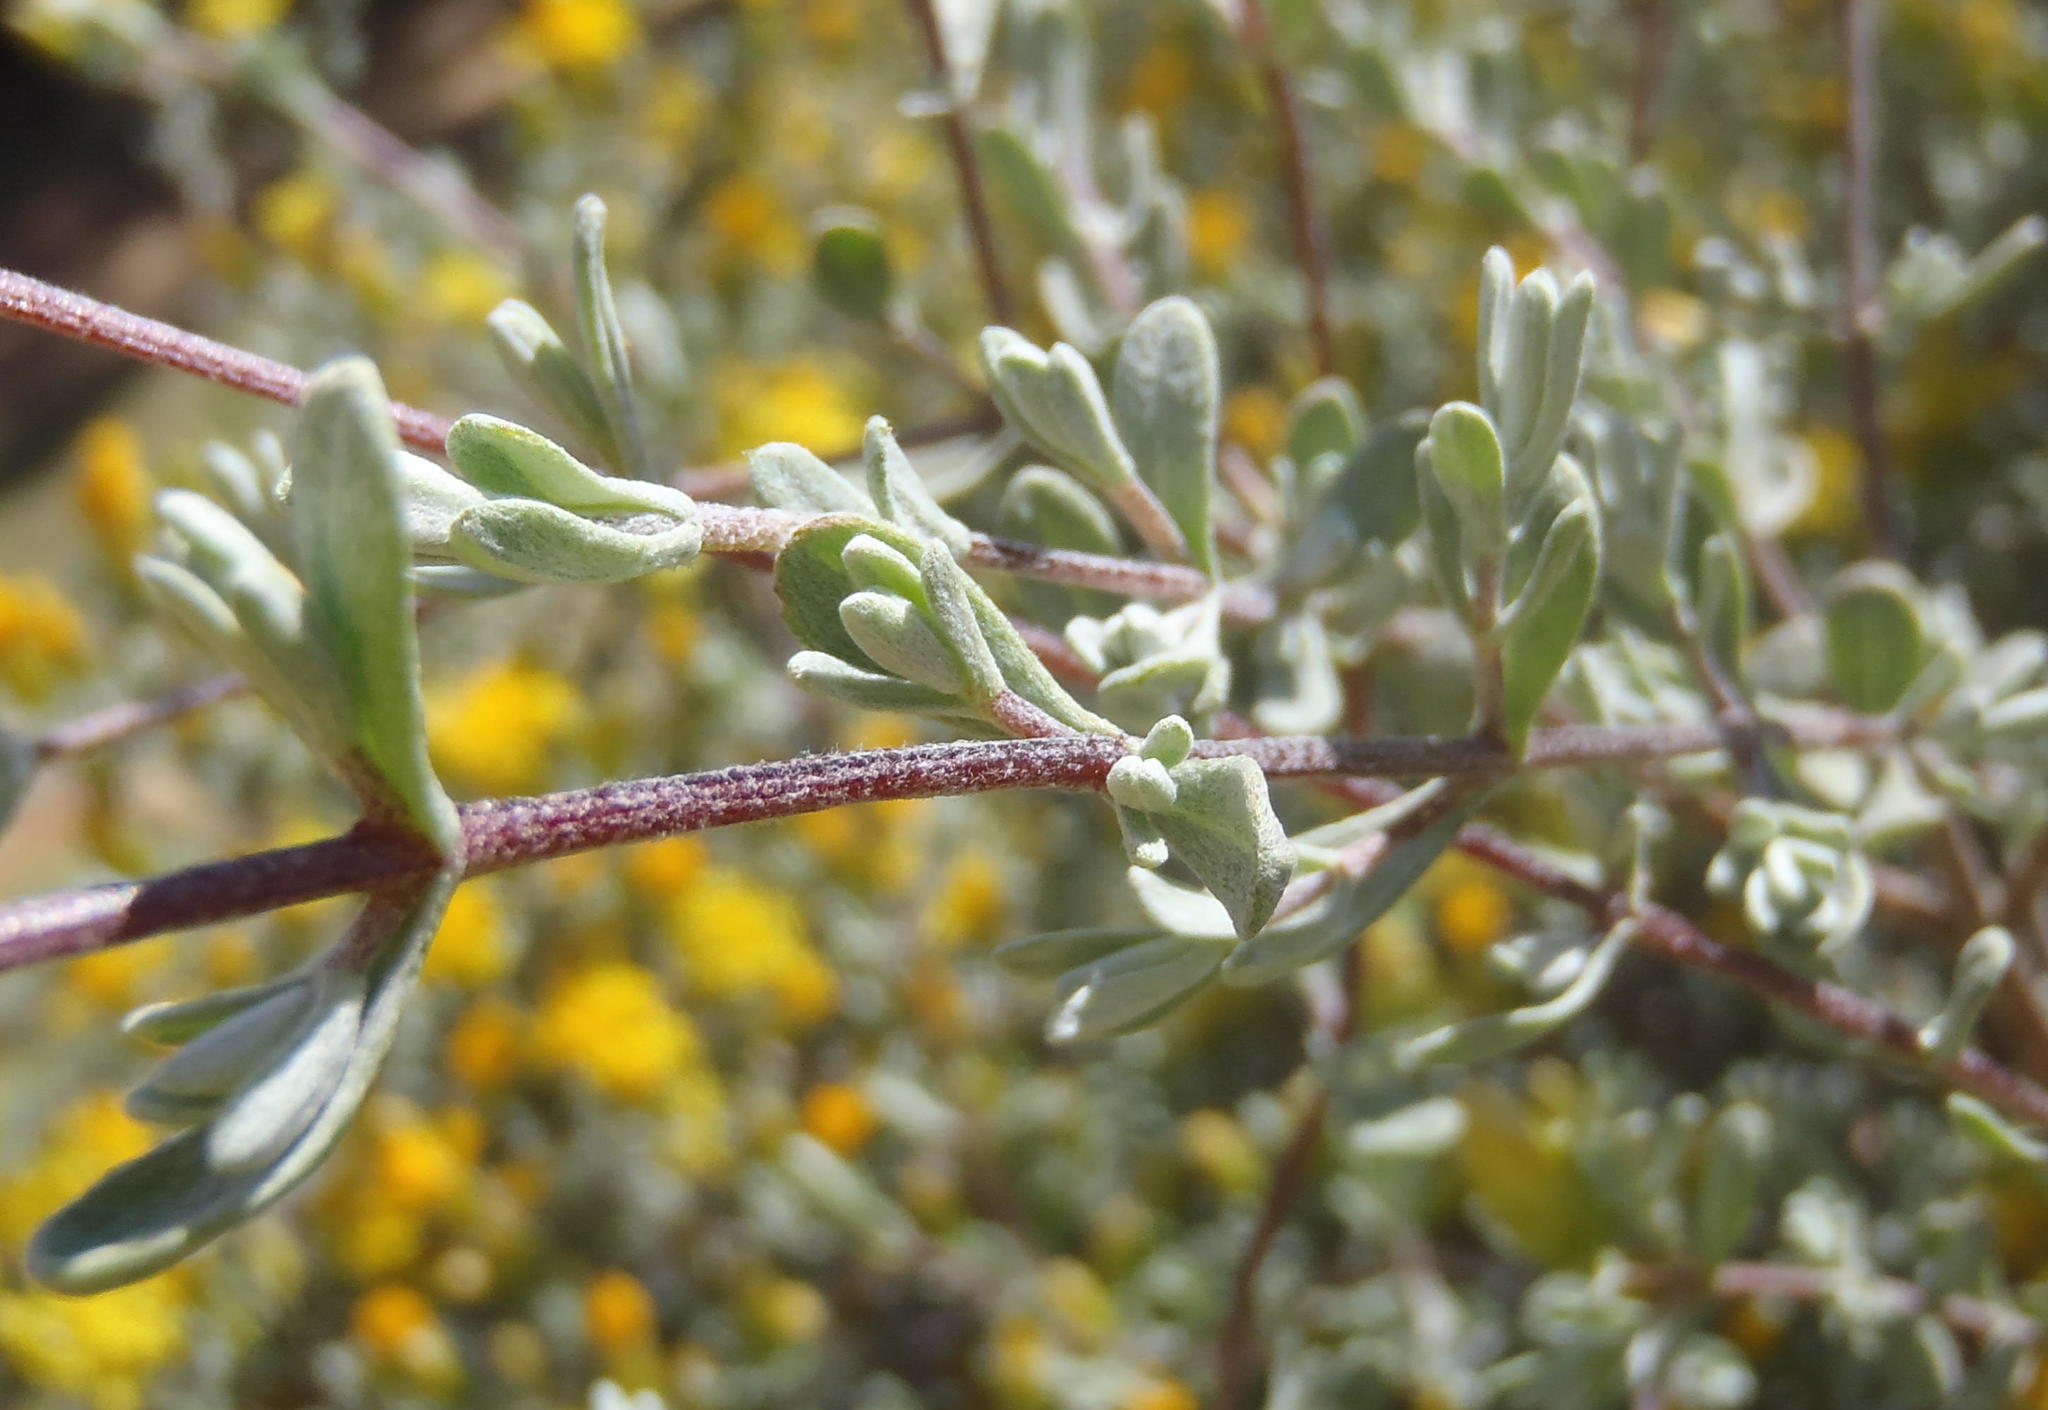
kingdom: Plantae
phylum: Tracheophyta
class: Magnoliopsida
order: Asterales
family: Asteraceae
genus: Pteronia
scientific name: Pteronia incana
